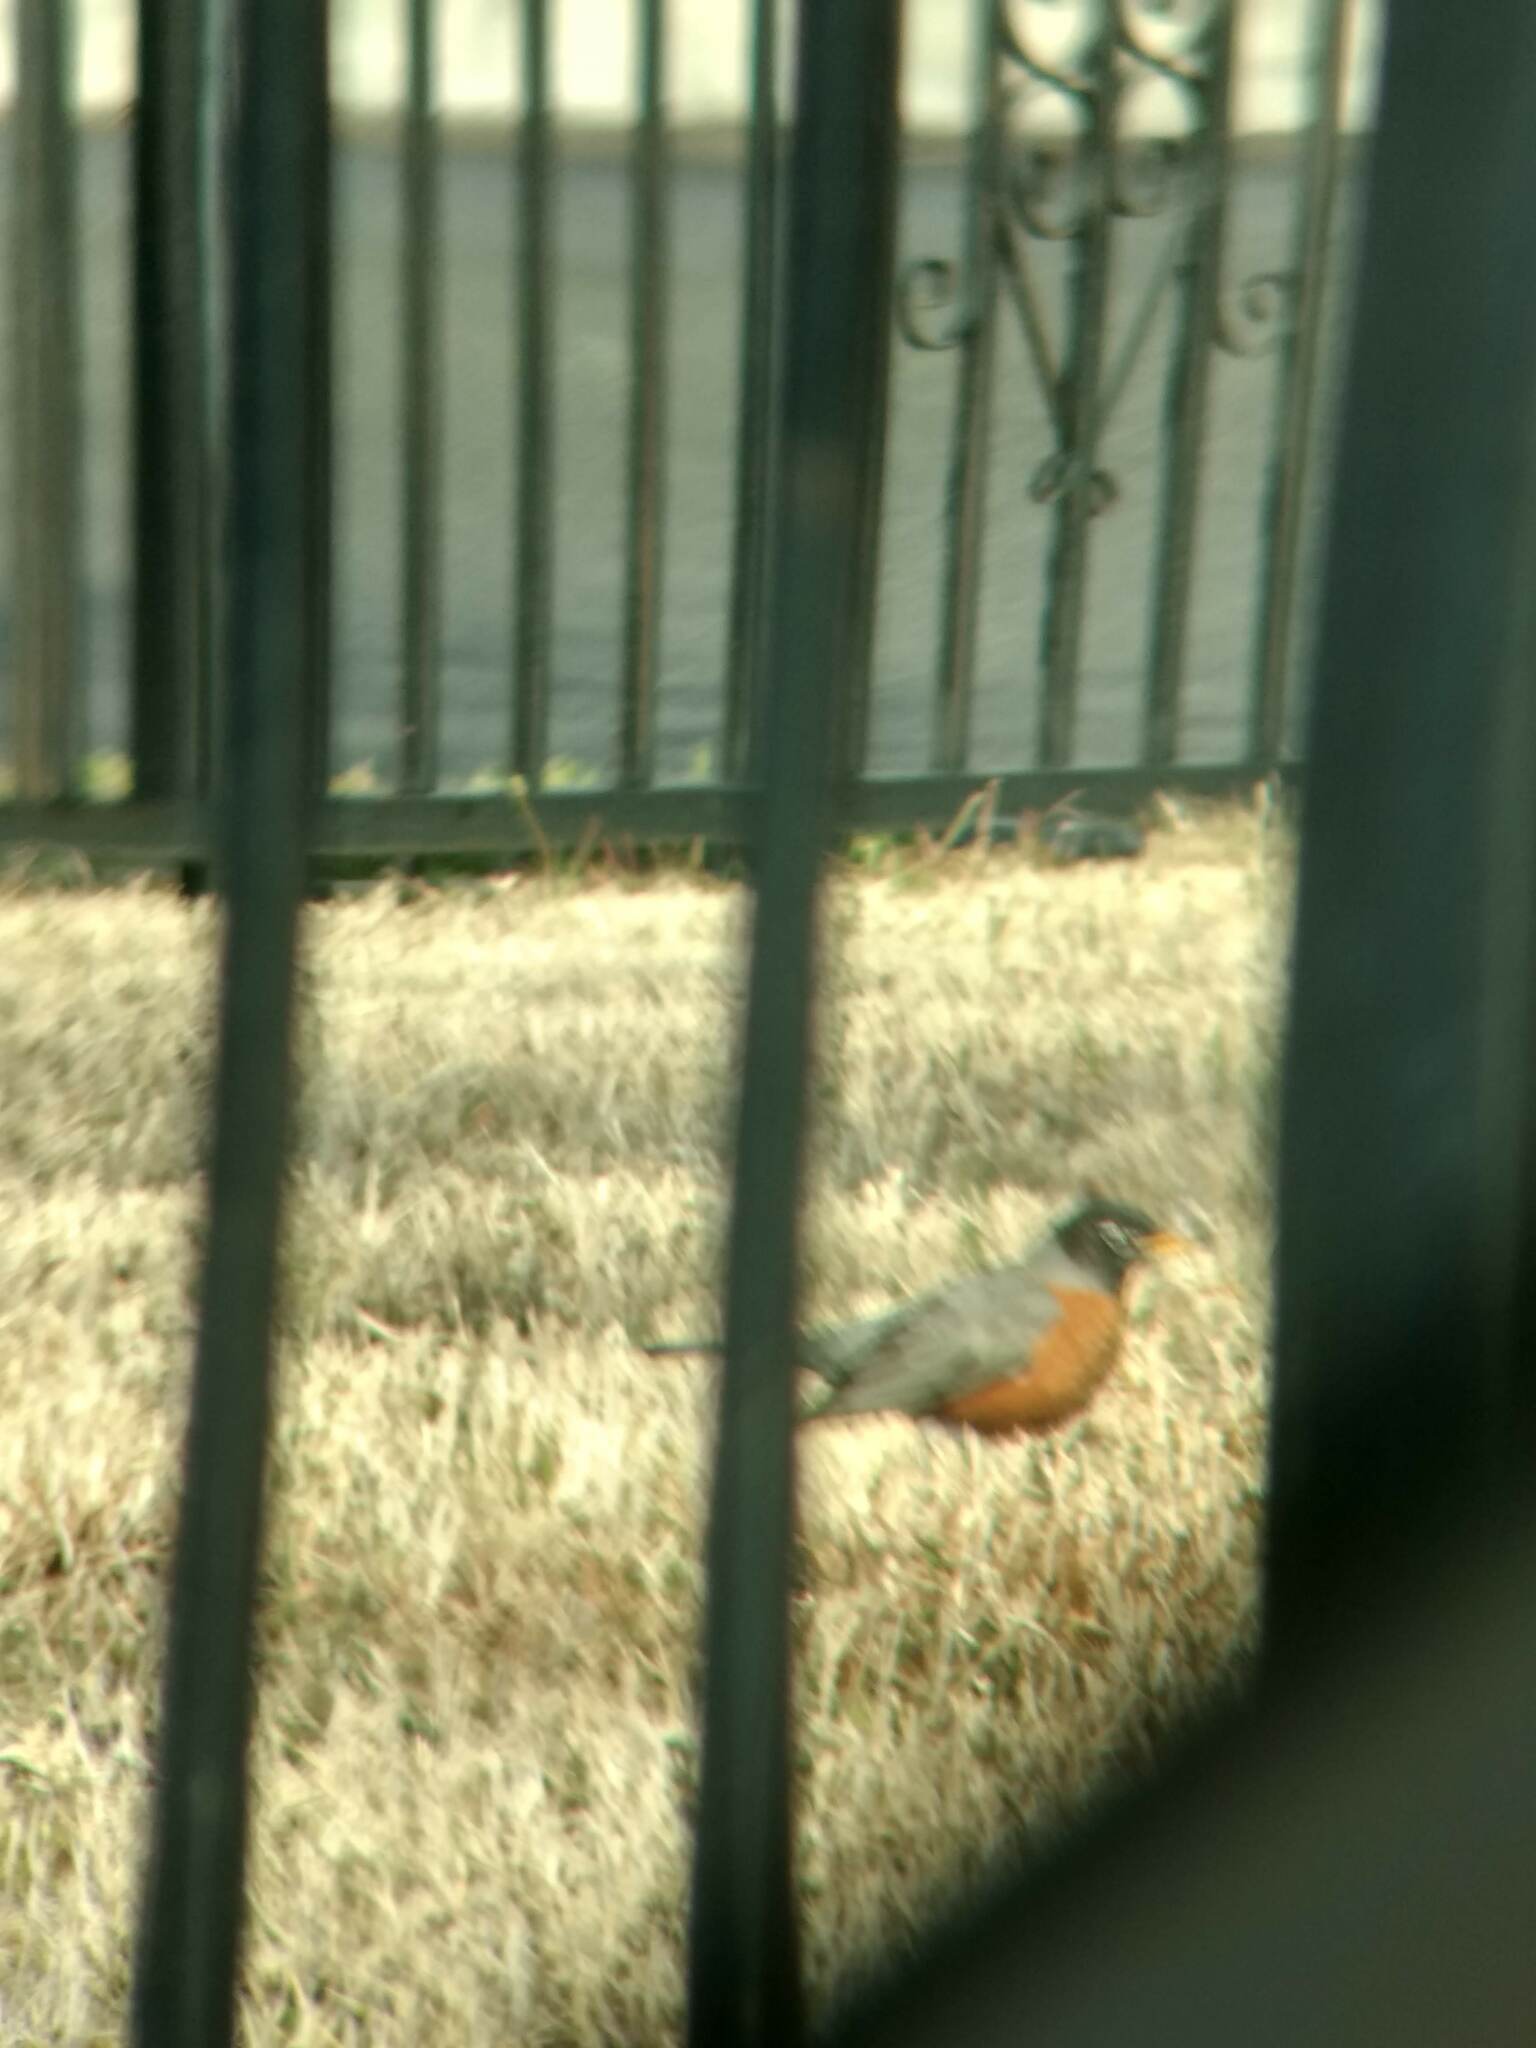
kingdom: Animalia
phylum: Chordata
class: Aves
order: Passeriformes
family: Turdidae
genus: Turdus
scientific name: Turdus migratorius
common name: American robin
